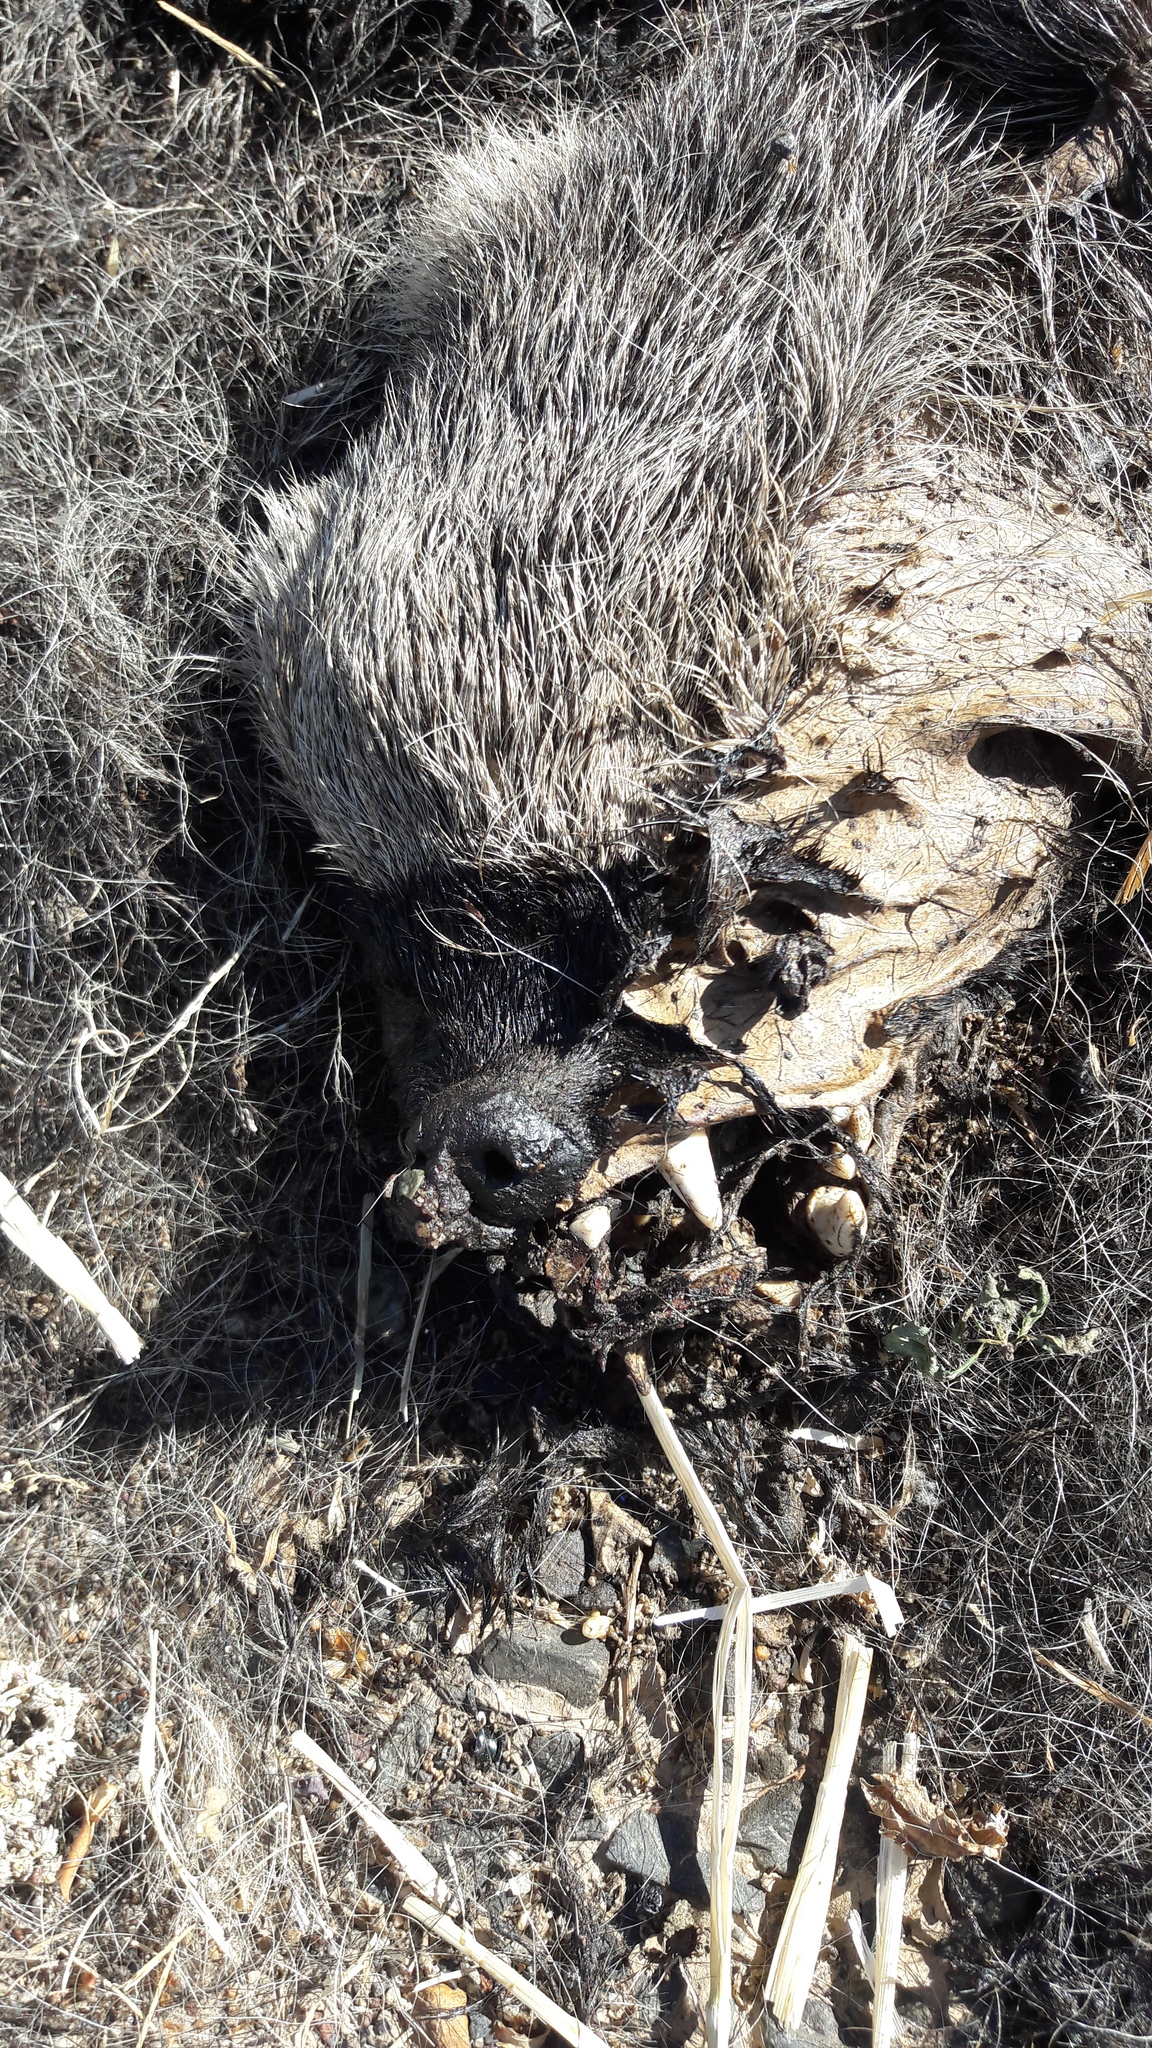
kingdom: Animalia
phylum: Chordata
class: Mammalia
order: Carnivora
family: Mustelidae
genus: Mellivora
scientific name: Mellivora capensis
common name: Honey badger
